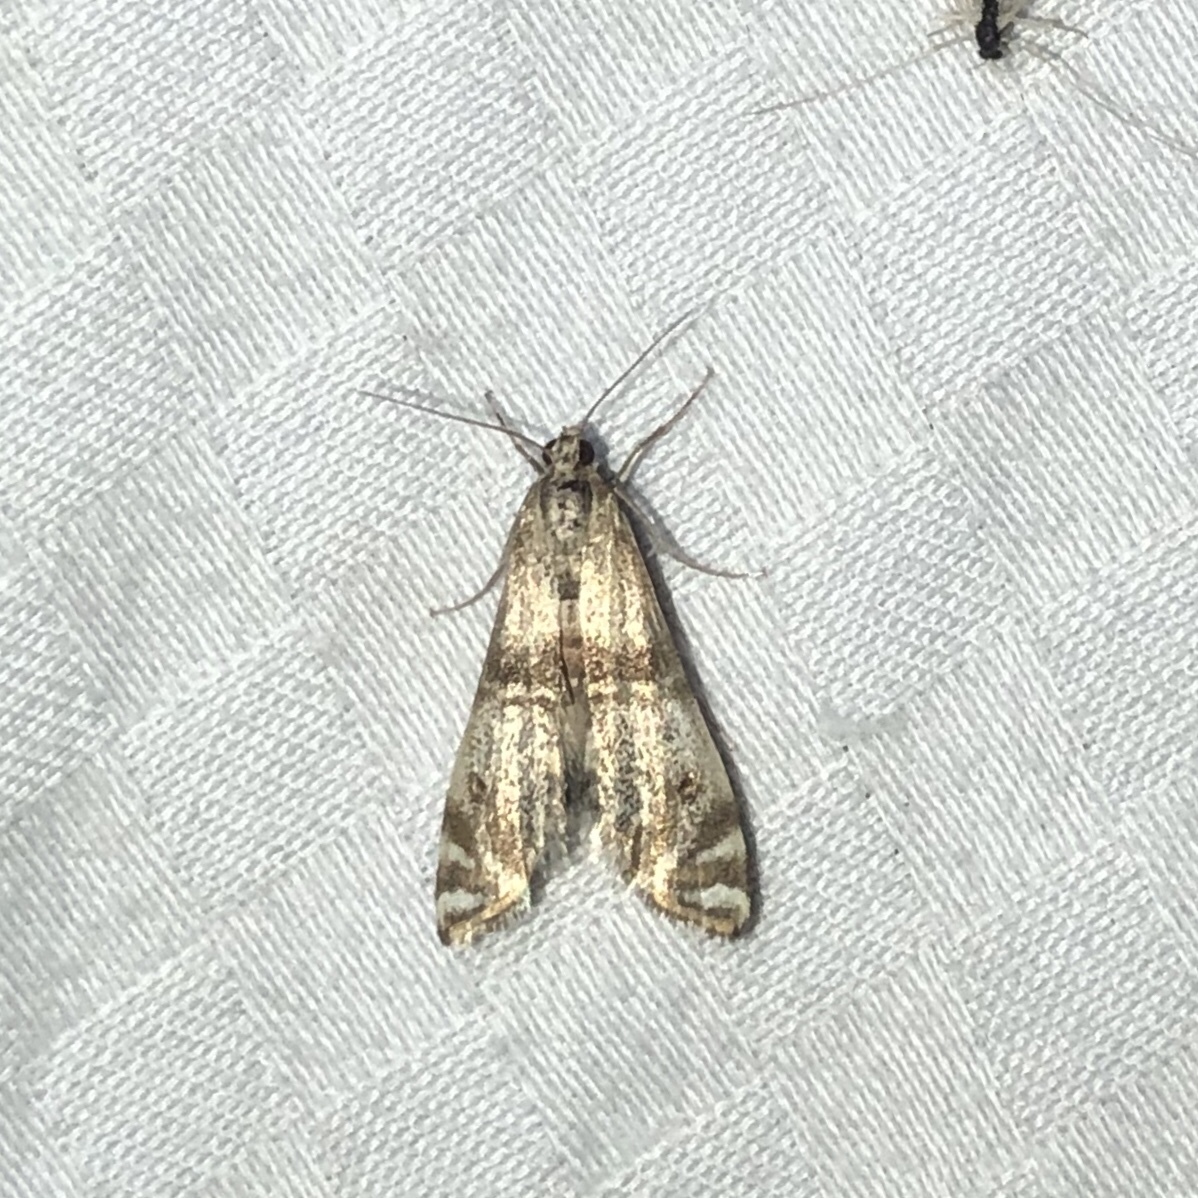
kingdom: Animalia
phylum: Arthropoda
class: Insecta
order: Lepidoptera
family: Crambidae
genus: Petrophila
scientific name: Petrophila bifascialis
